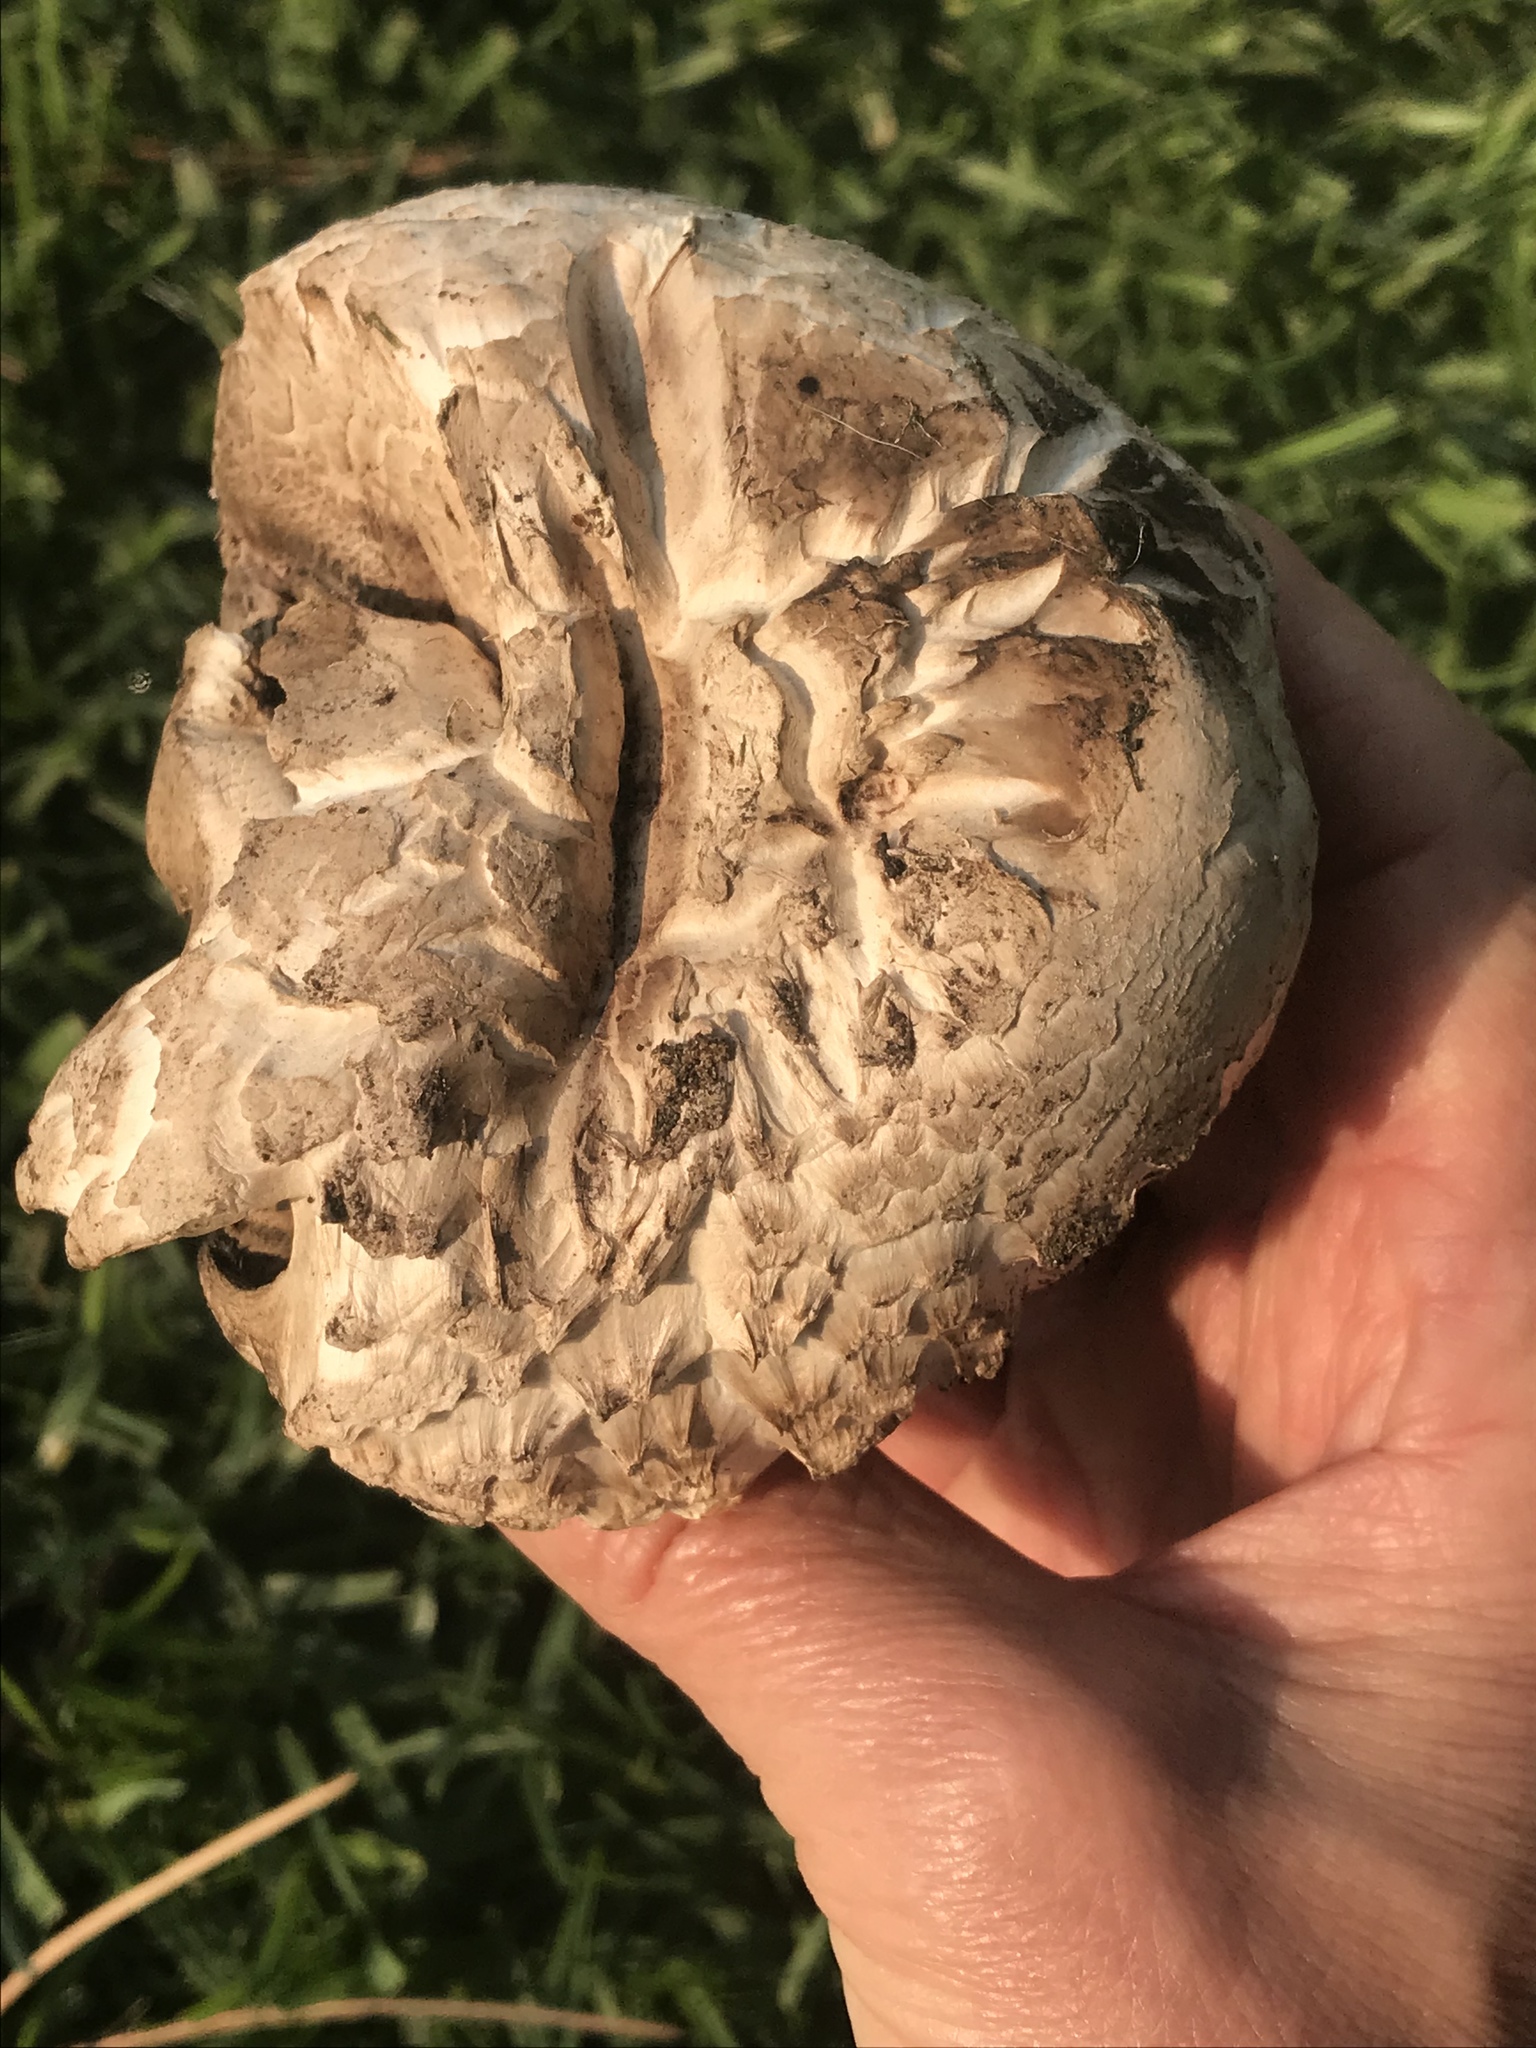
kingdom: Fungi
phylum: Basidiomycota
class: Agaricomycetes
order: Agaricales
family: Agaricaceae
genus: Agaricus
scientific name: Agaricus bernardii
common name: Salty mushroom
